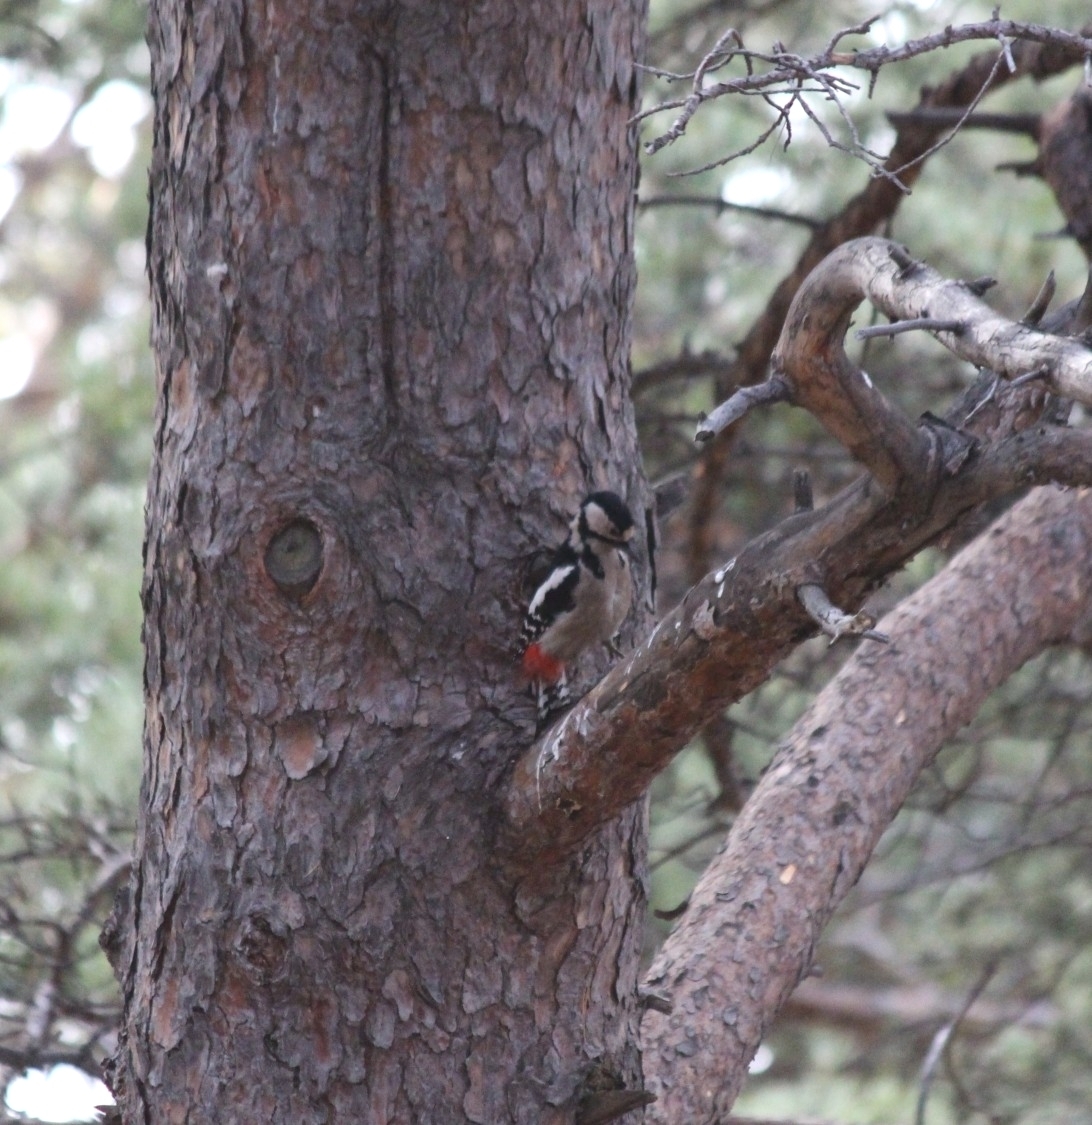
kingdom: Animalia
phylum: Chordata
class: Aves
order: Piciformes
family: Picidae
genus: Dendrocopos
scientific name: Dendrocopos major
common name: Great spotted woodpecker
